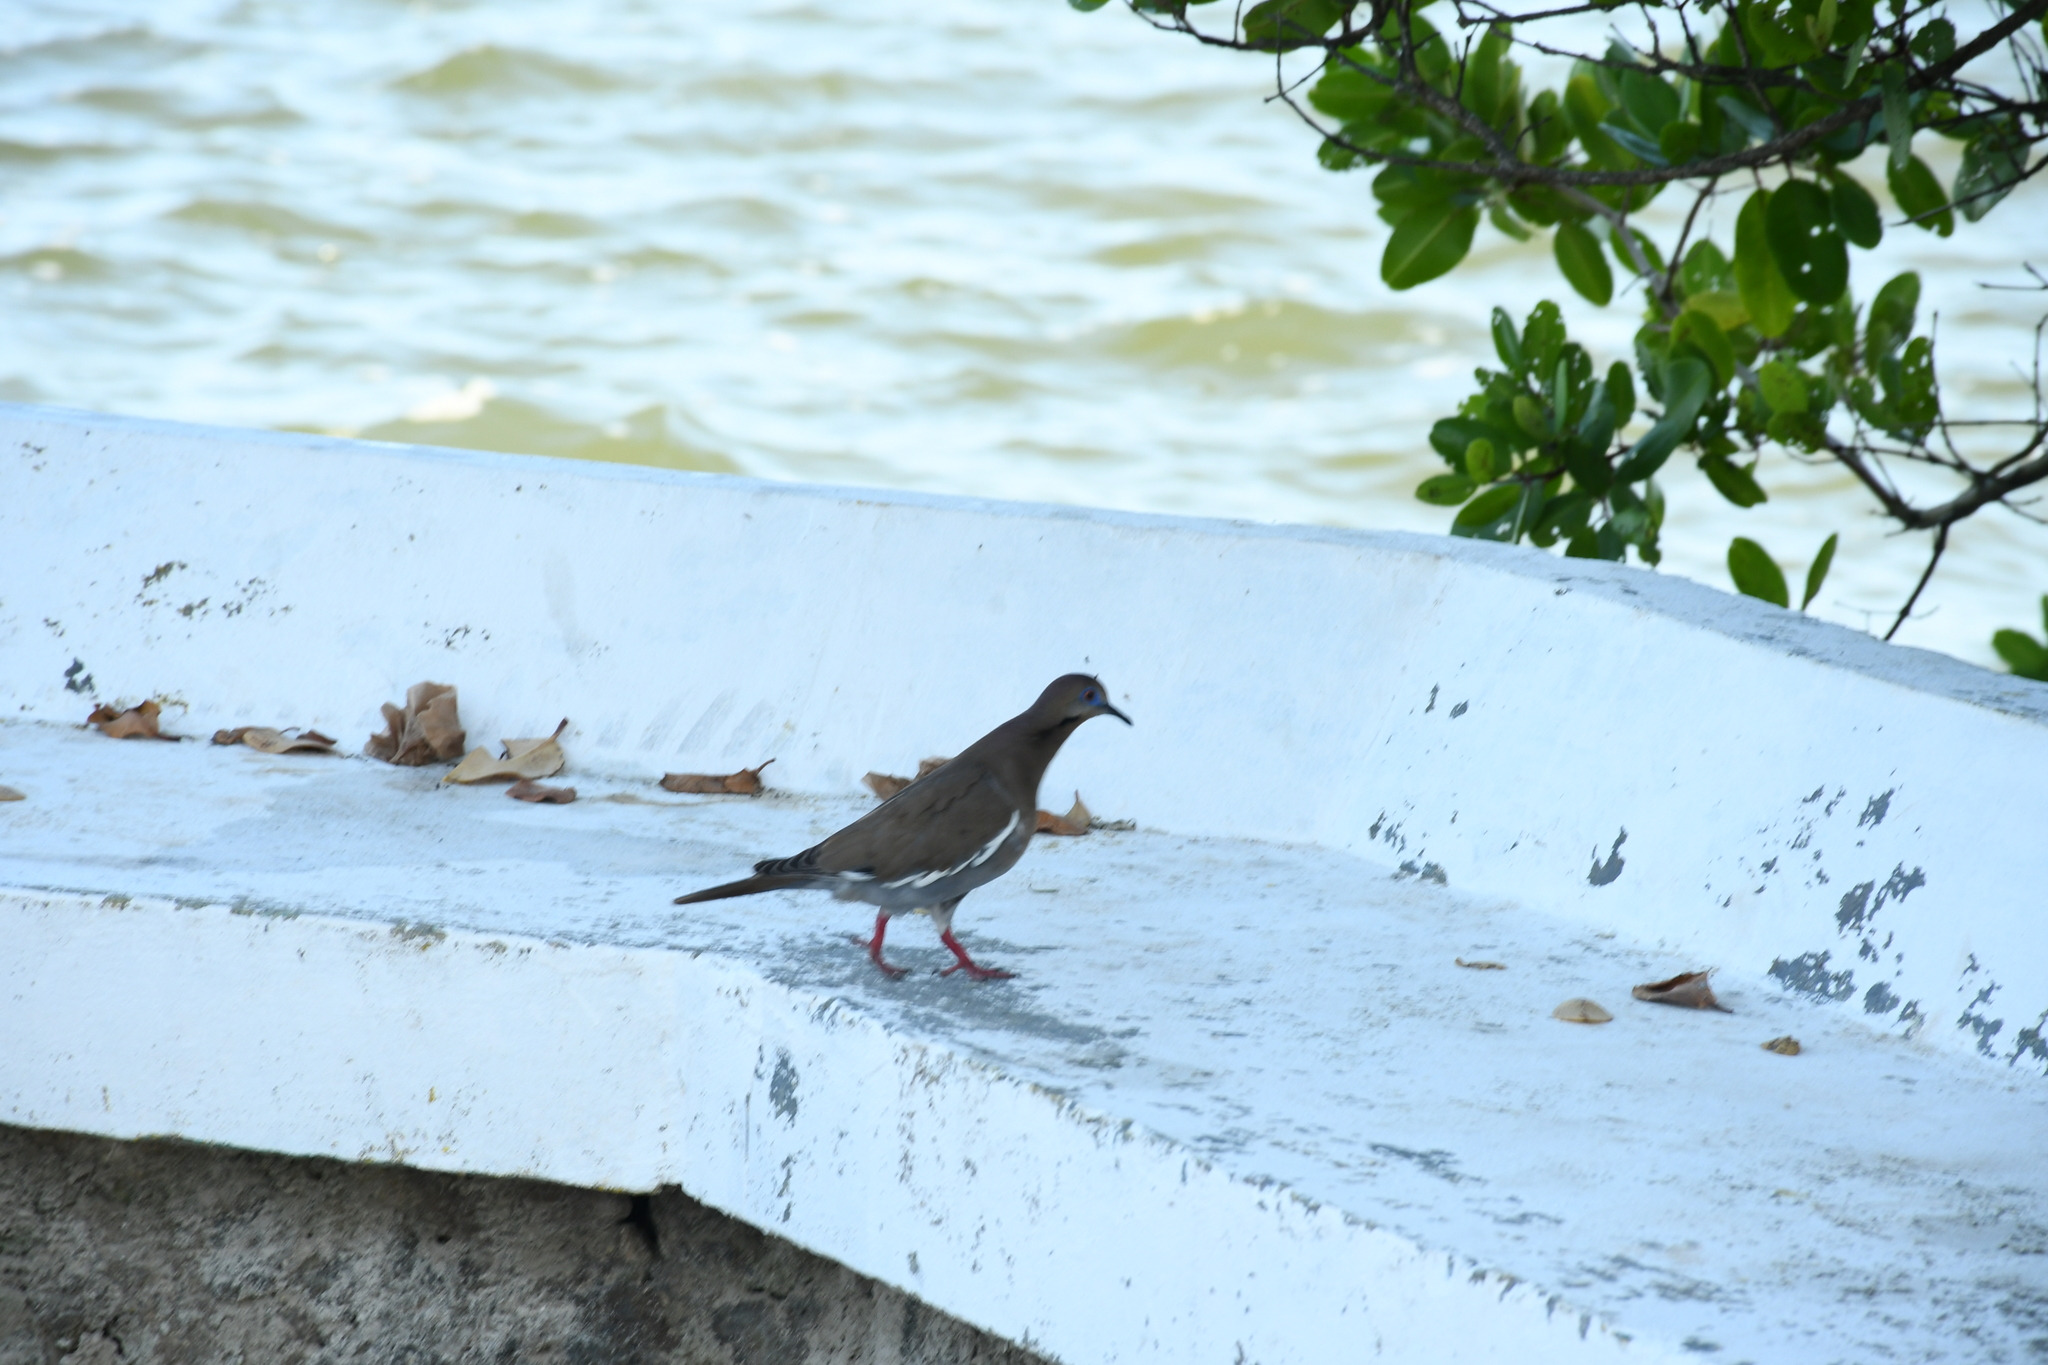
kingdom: Animalia
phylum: Chordata
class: Aves
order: Columbiformes
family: Columbidae
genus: Zenaida
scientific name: Zenaida asiatica
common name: White-winged dove
